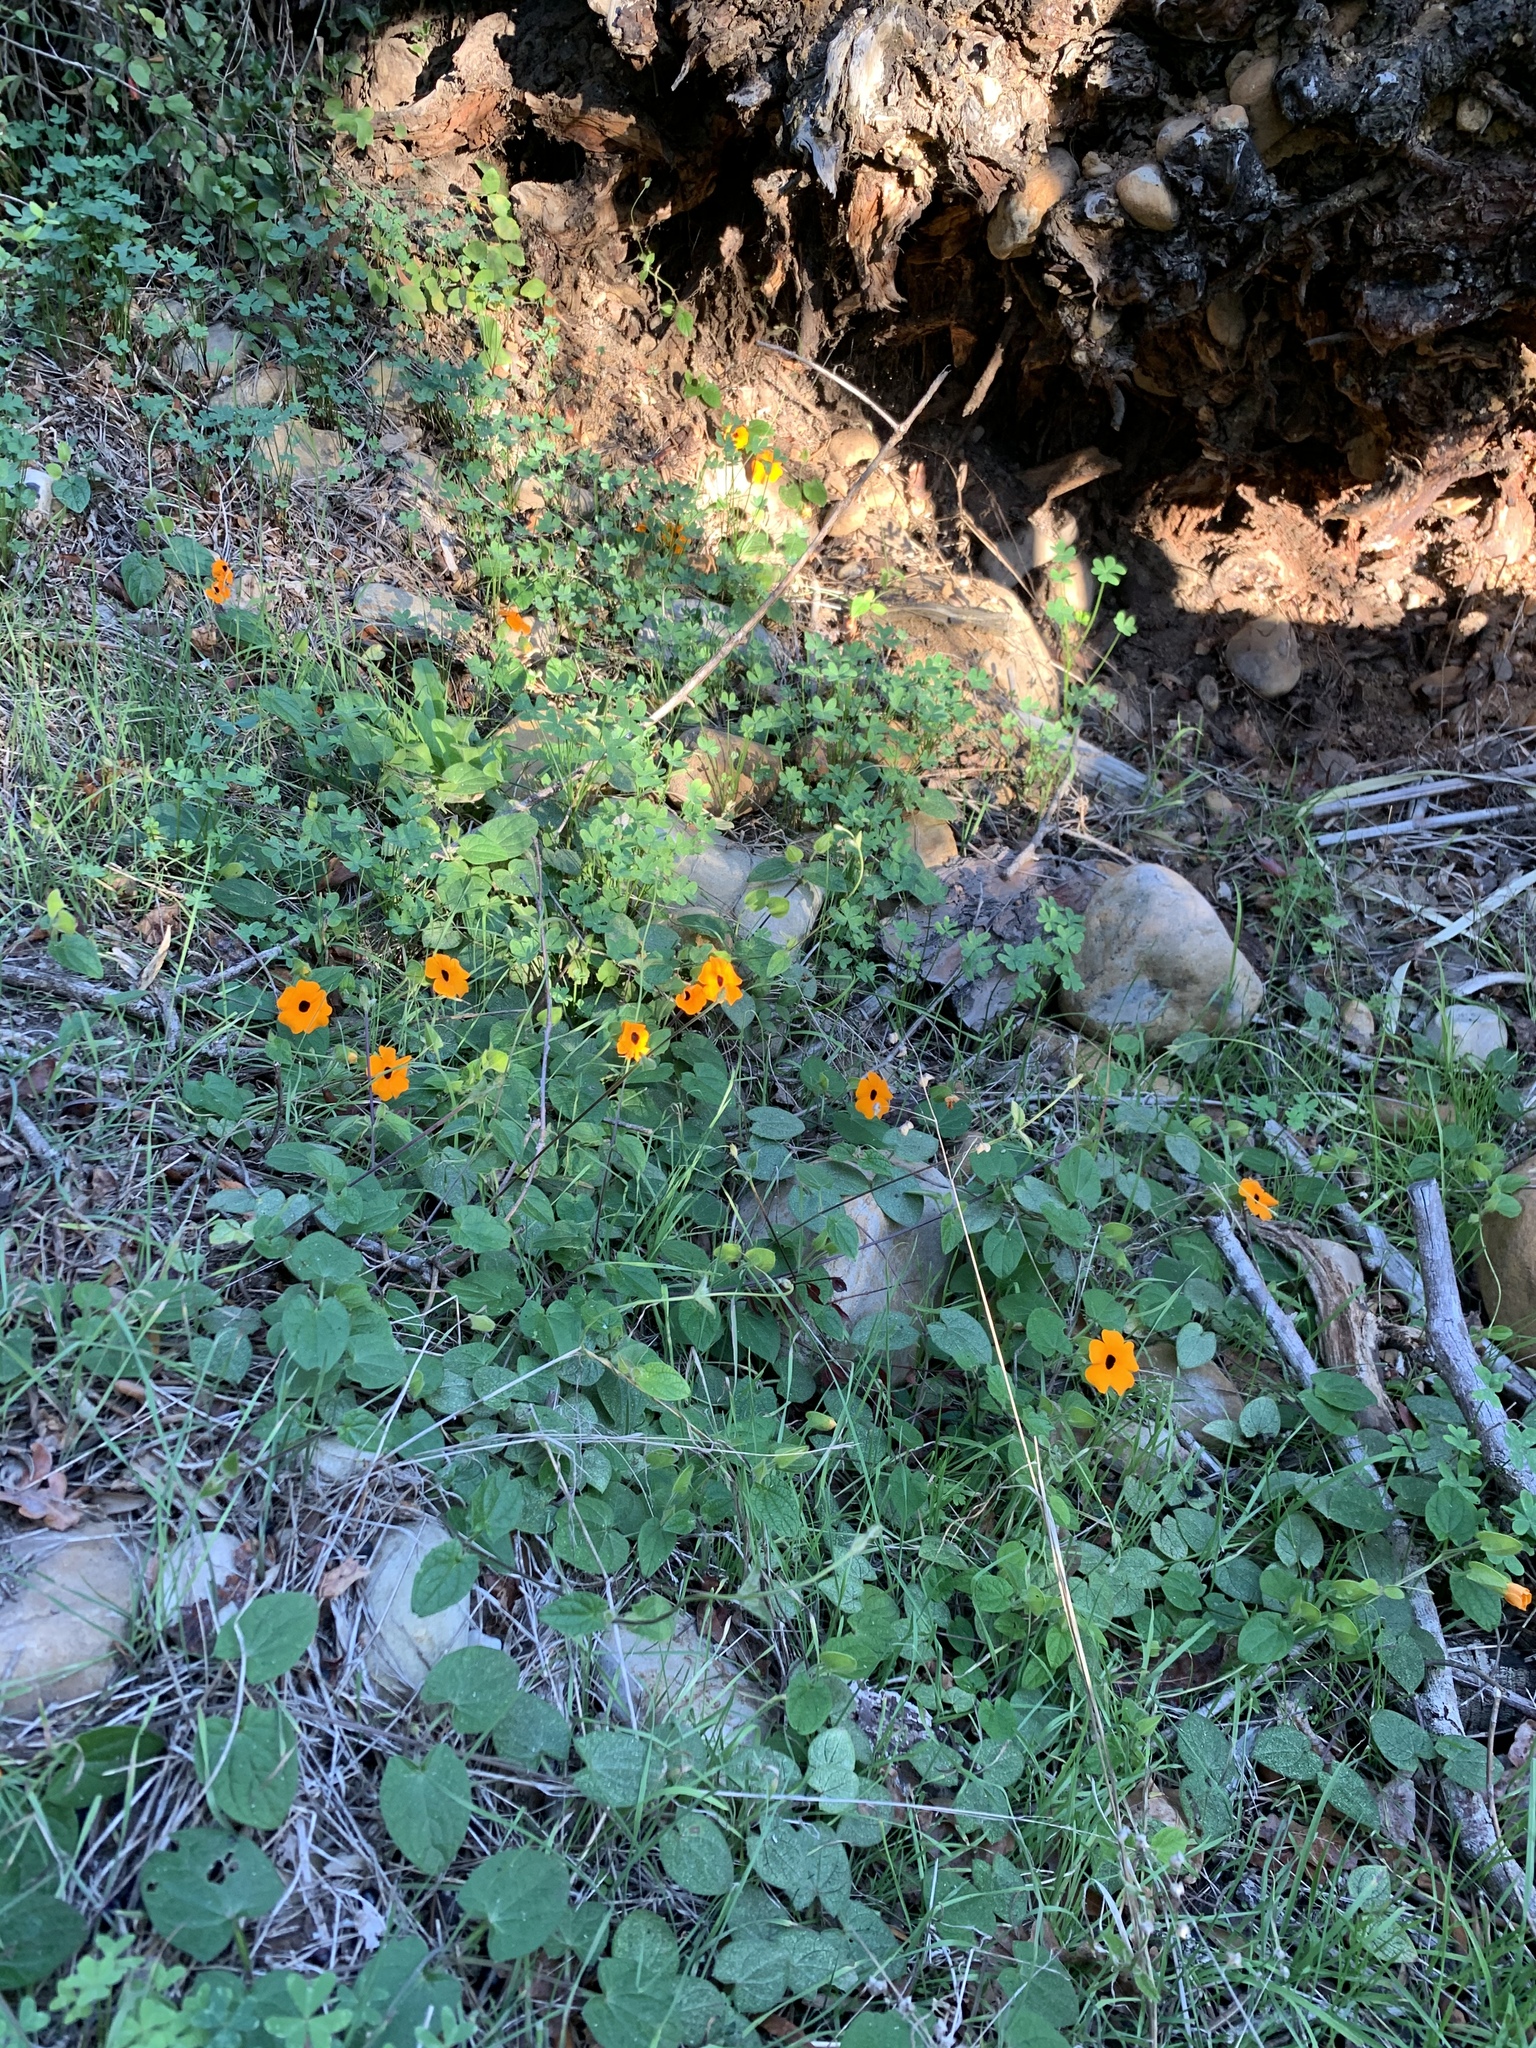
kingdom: Plantae
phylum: Tracheophyta
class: Magnoliopsida
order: Lamiales
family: Acanthaceae
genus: Thunbergia
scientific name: Thunbergia alata
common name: Blackeyed susan vine
